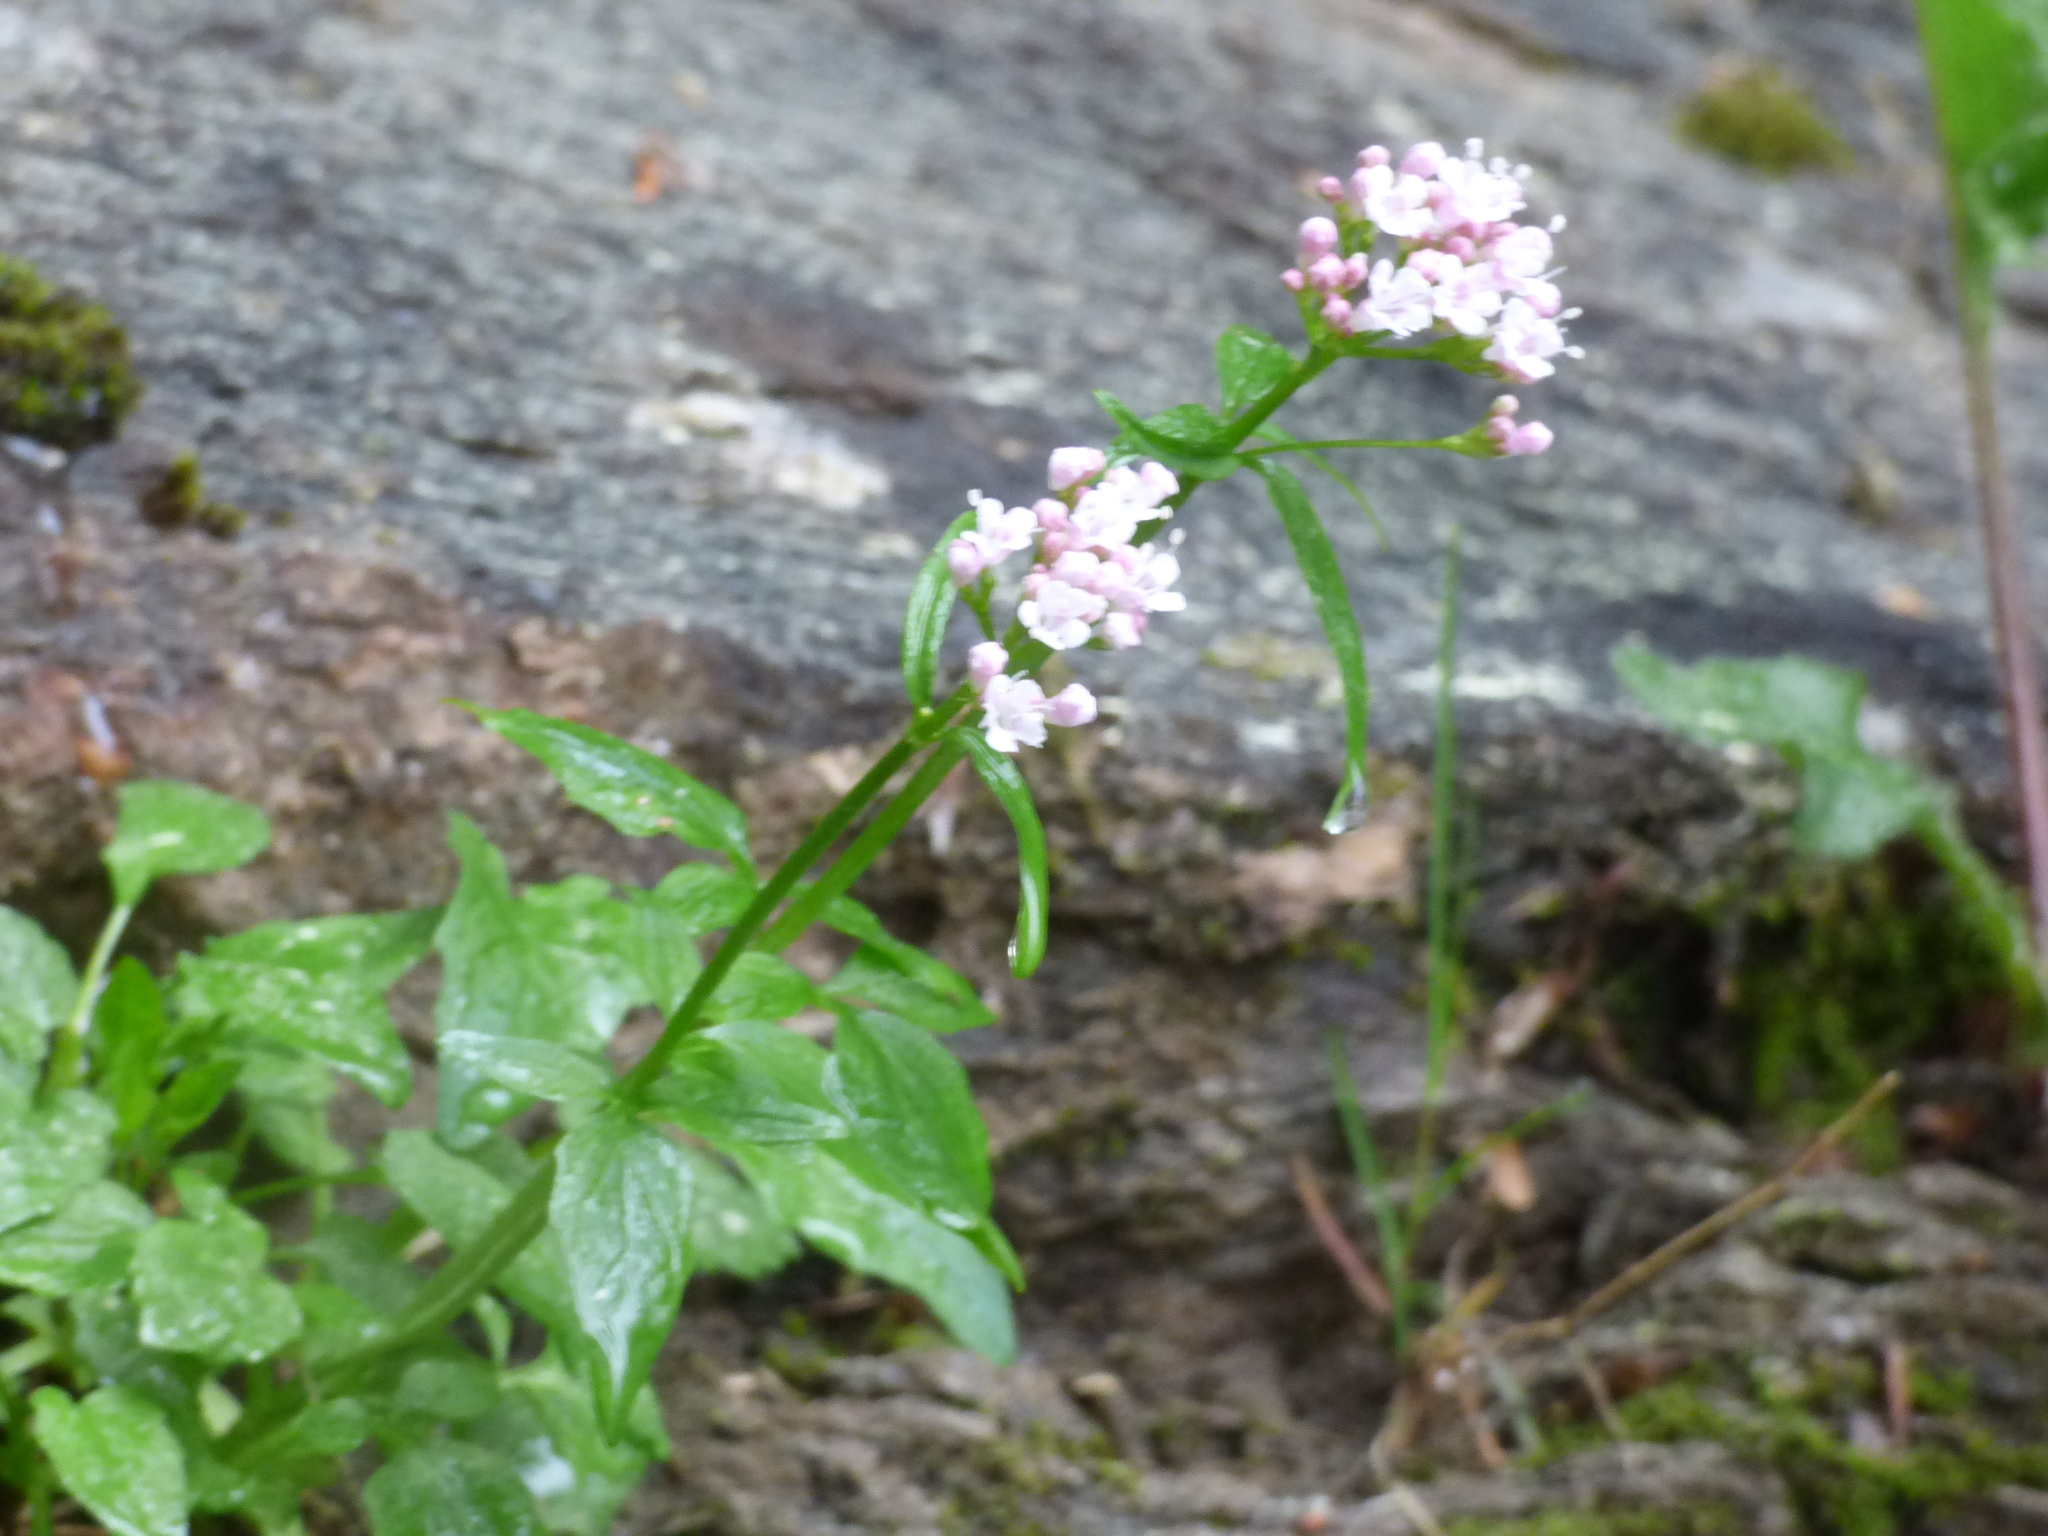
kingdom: Plantae
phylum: Tracheophyta
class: Magnoliopsida
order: Dipsacales
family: Caprifoliaceae
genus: Valeriana
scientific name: Valeriana tripteris
